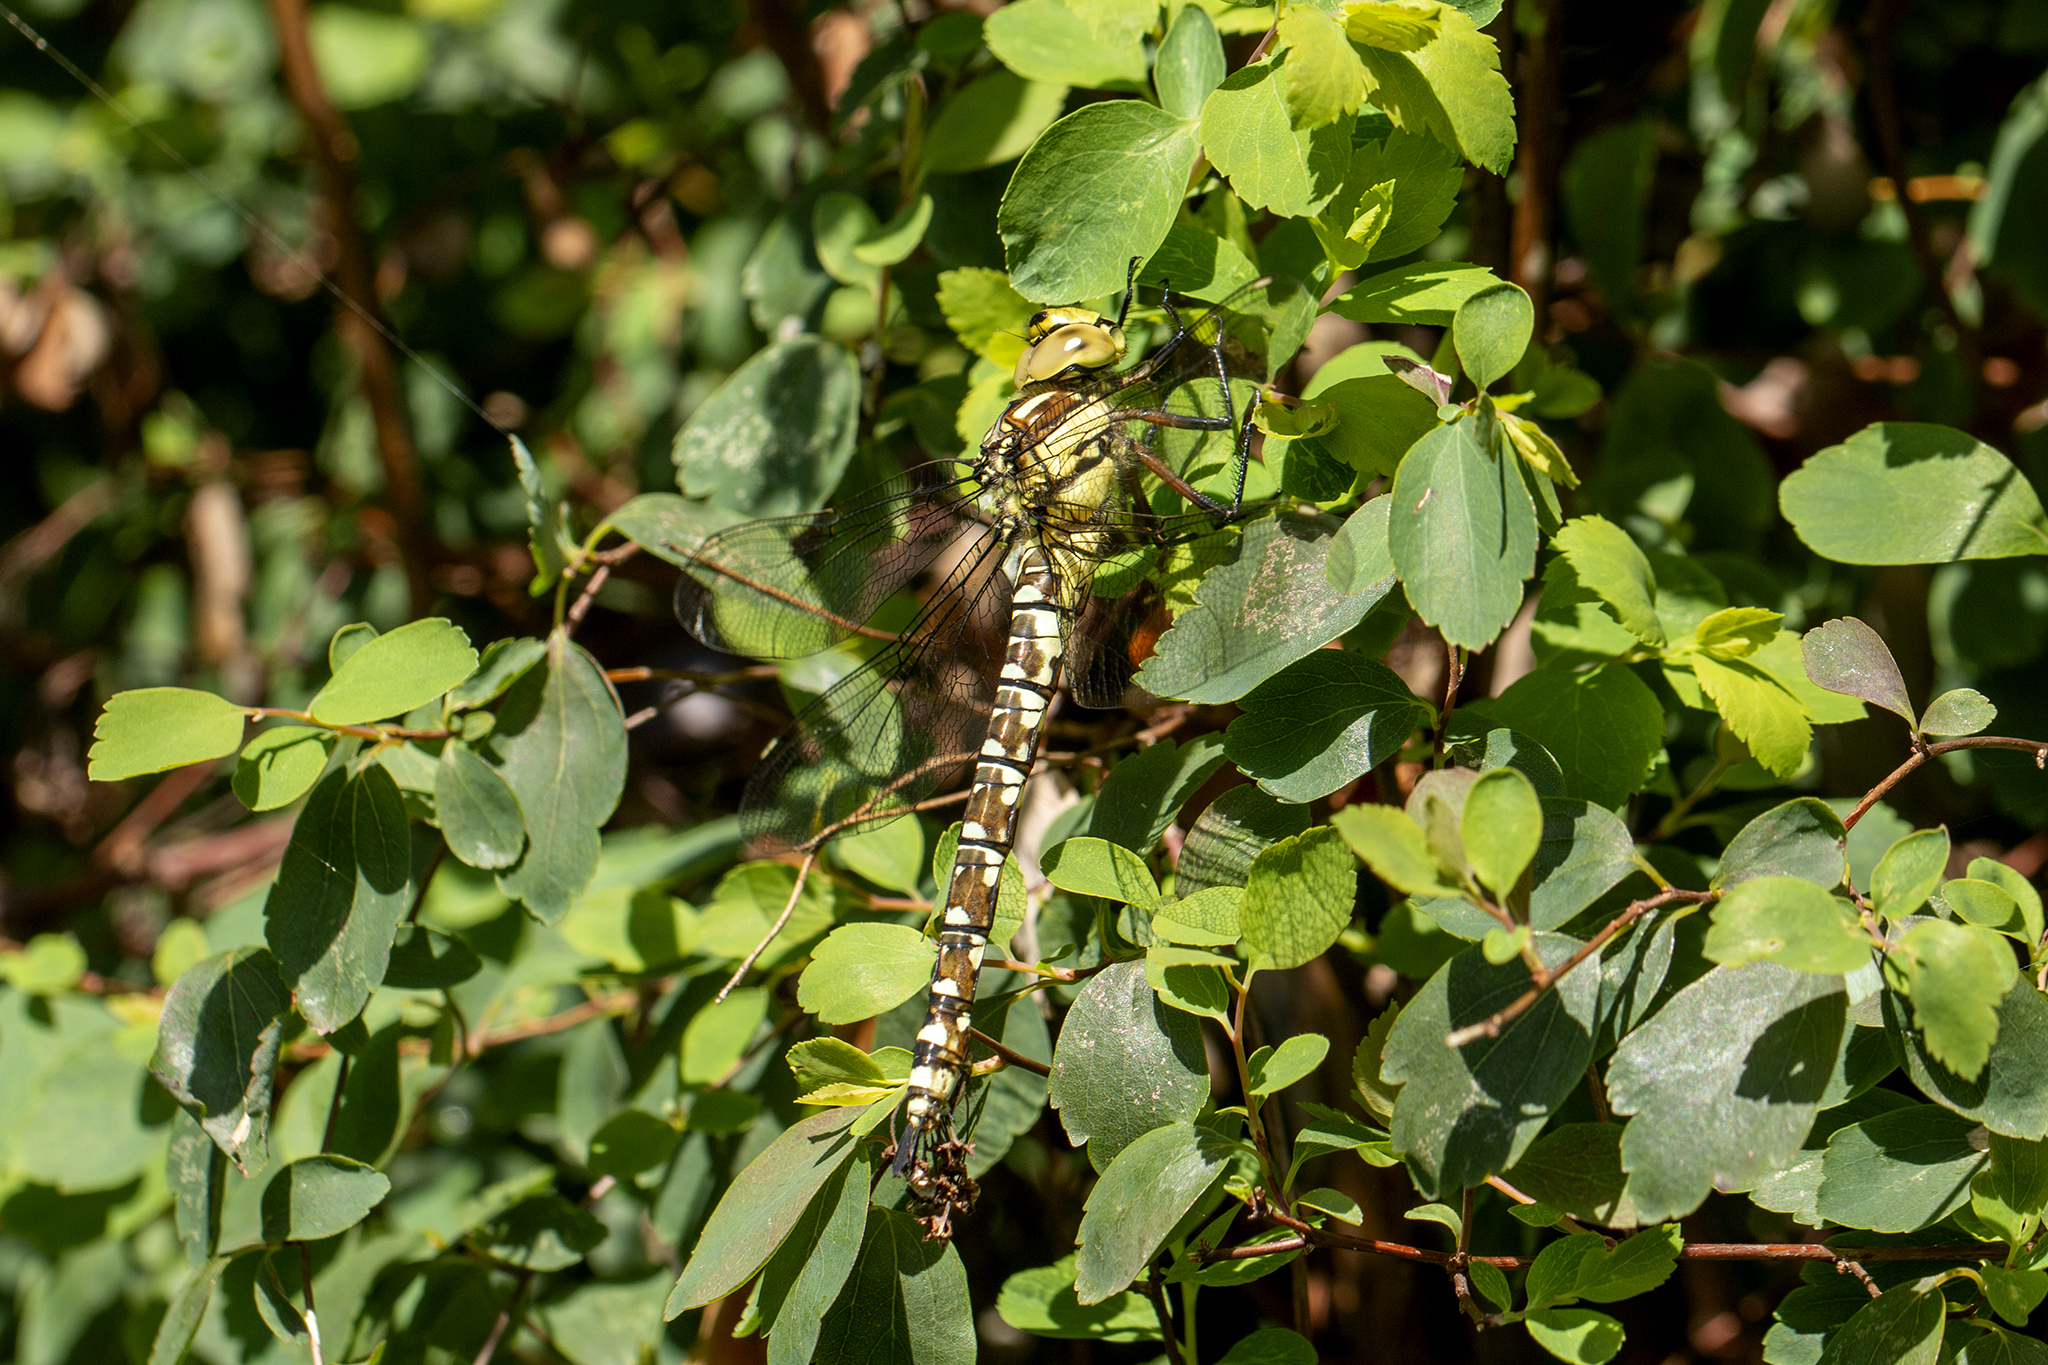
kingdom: Animalia
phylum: Arthropoda
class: Insecta
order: Odonata
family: Aeshnidae
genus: Aeshna
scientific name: Aeshna cyanea
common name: Southern hawker
